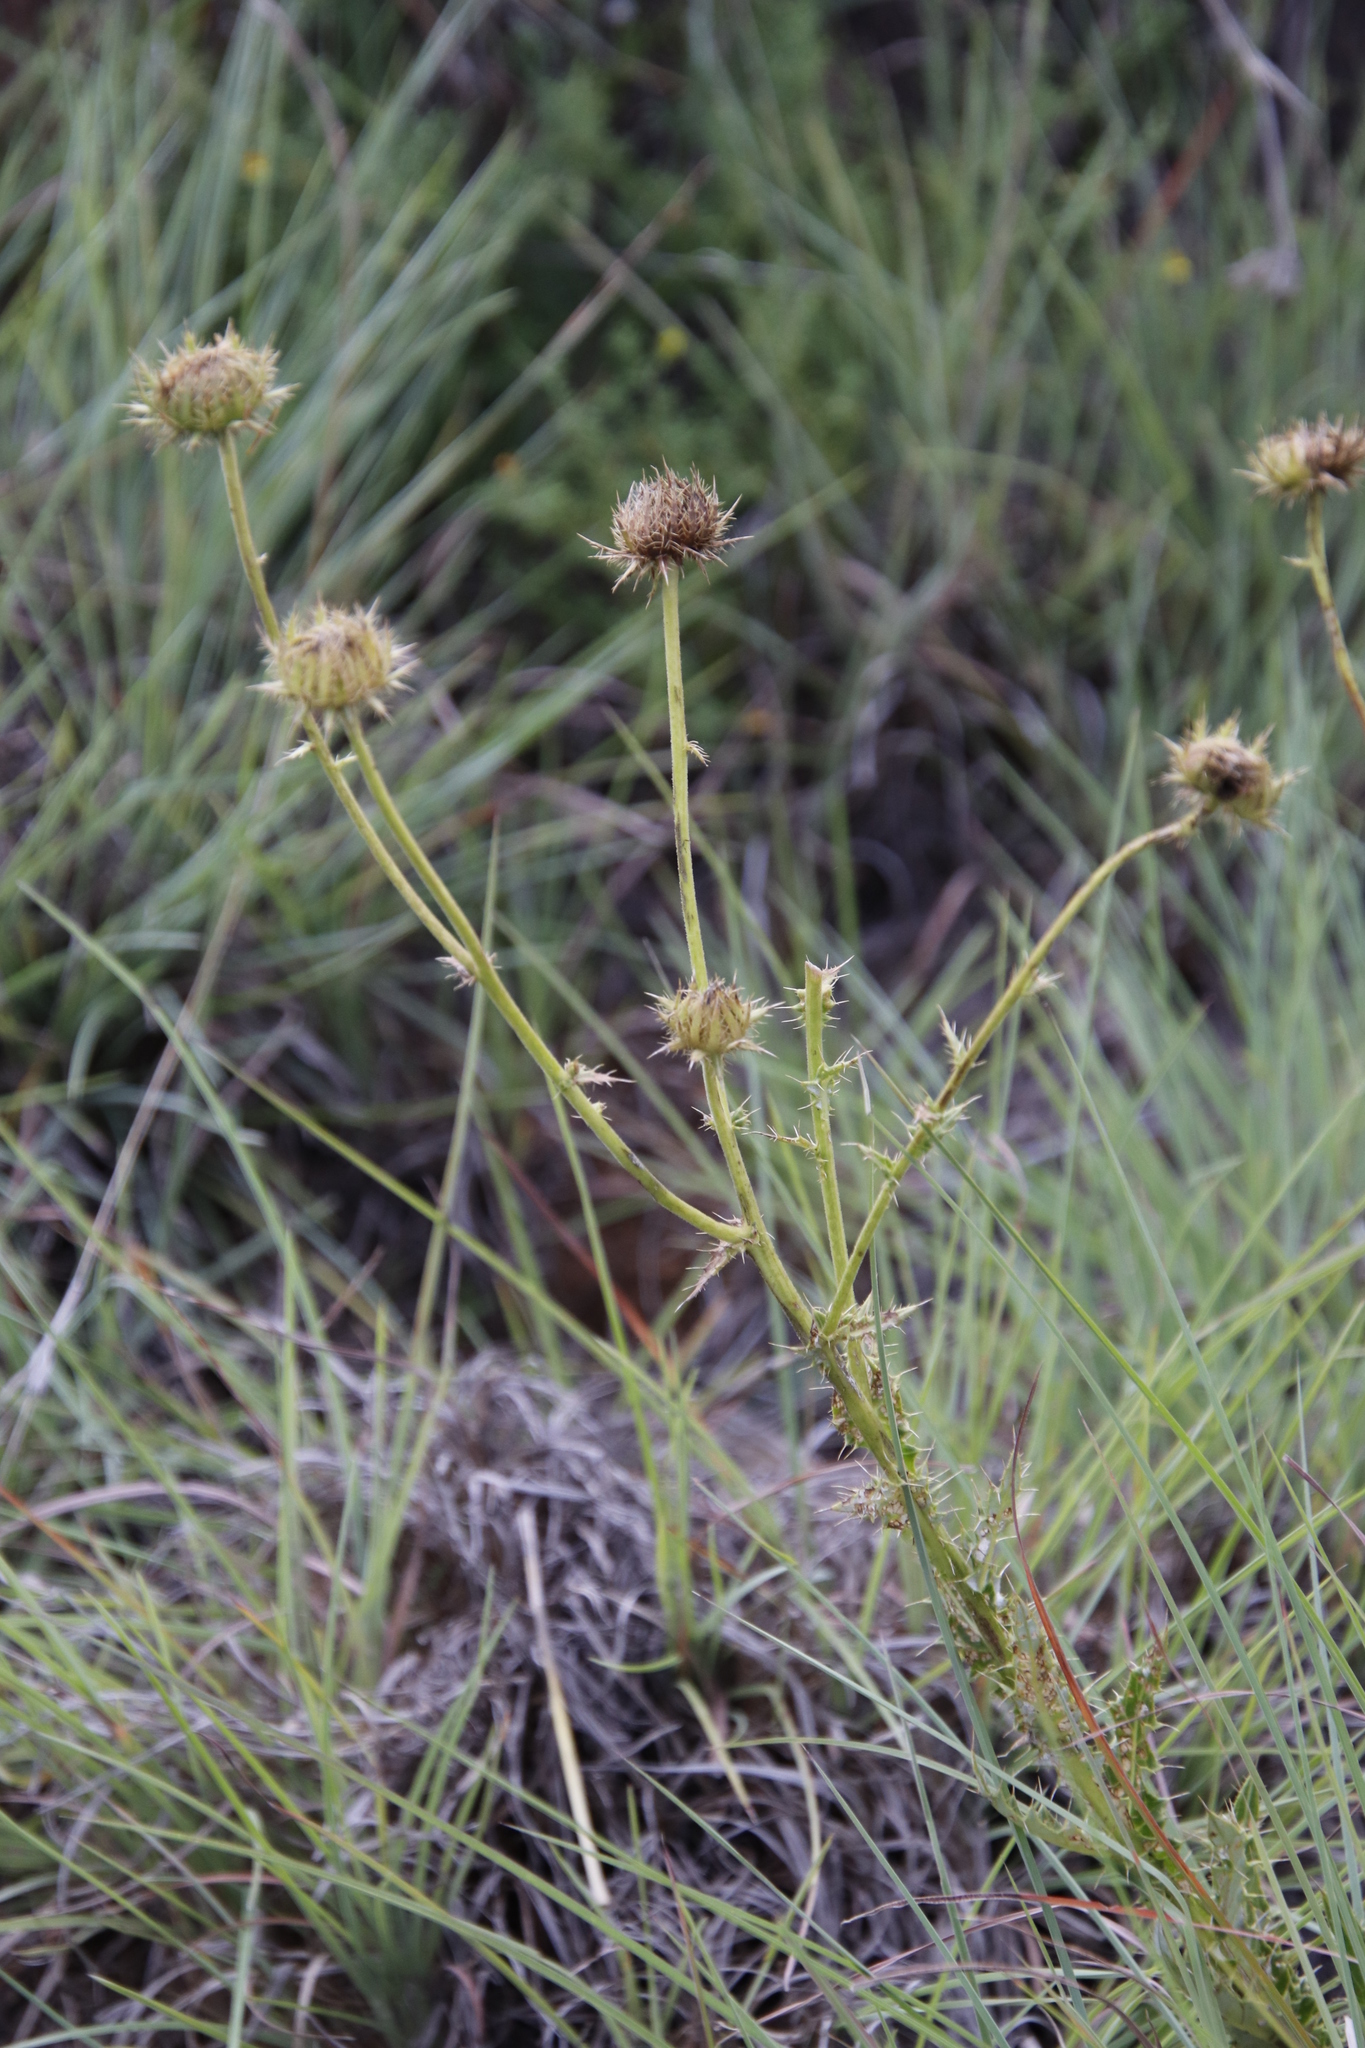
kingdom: Plantae
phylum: Tracheophyta
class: Magnoliopsida
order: Asterales
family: Asteraceae
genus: Berkheya
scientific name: Berkheya discolor
